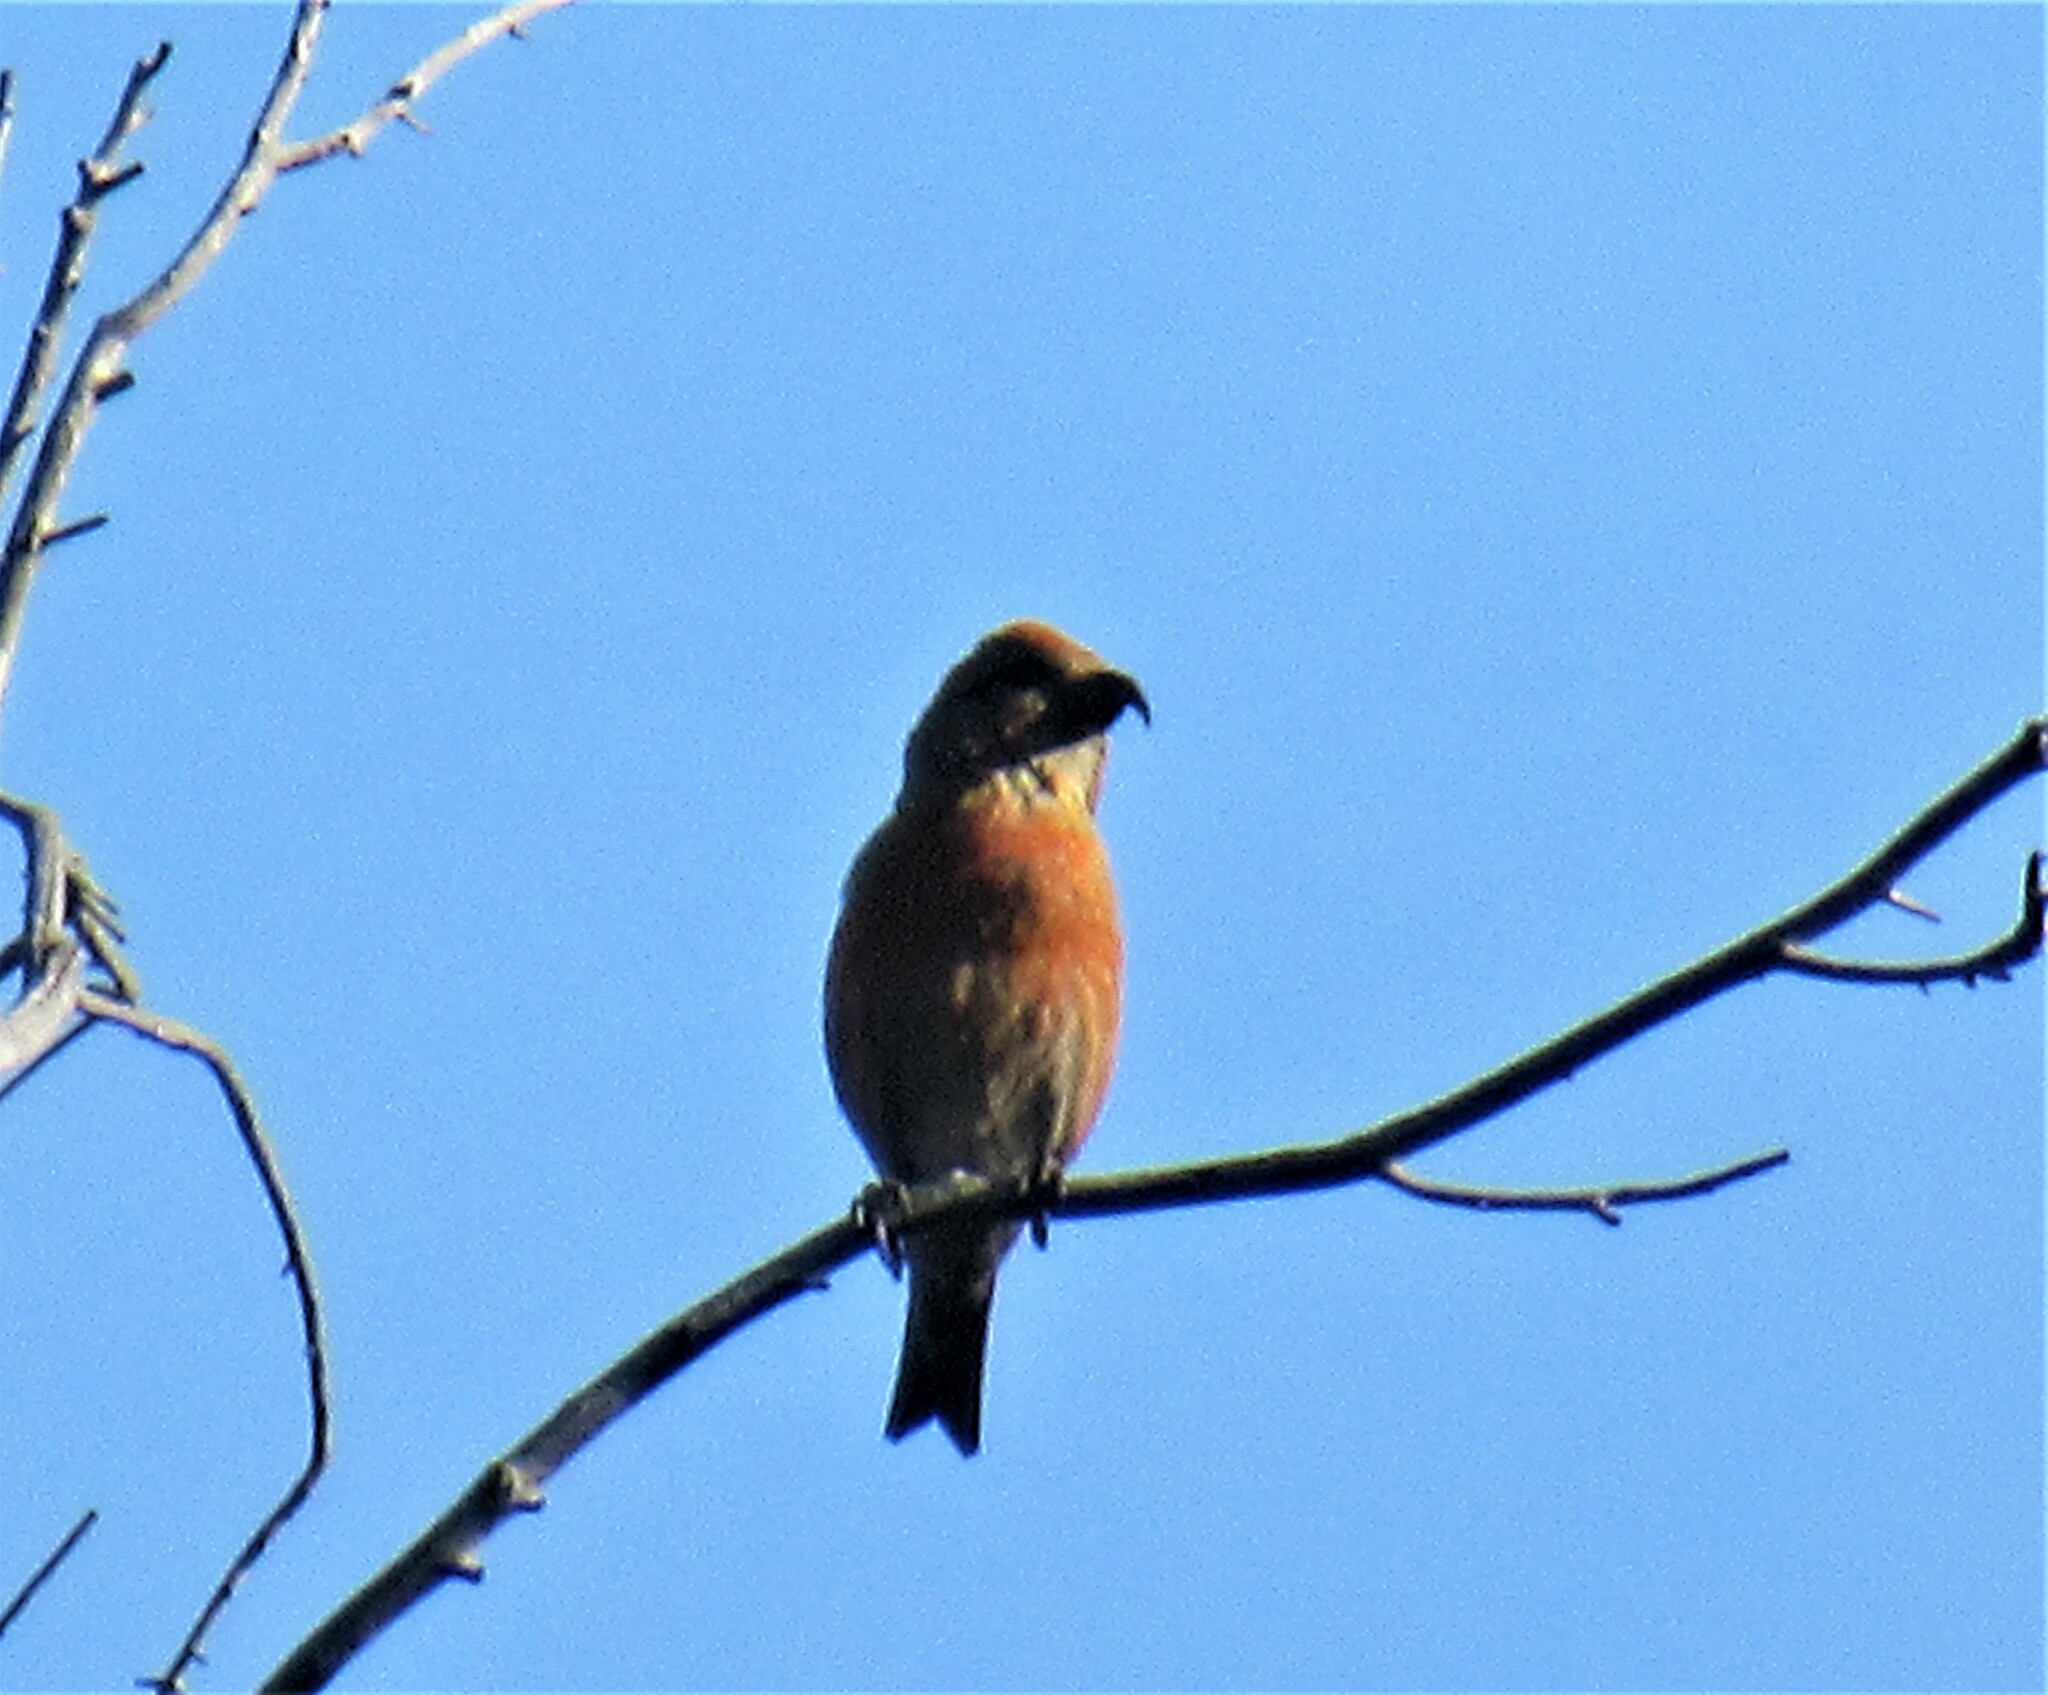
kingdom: Animalia
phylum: Chordata
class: Aves
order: Passeriformes
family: Fringillidae
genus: Loxia
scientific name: Loxia curvirostra
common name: Red crossbill
